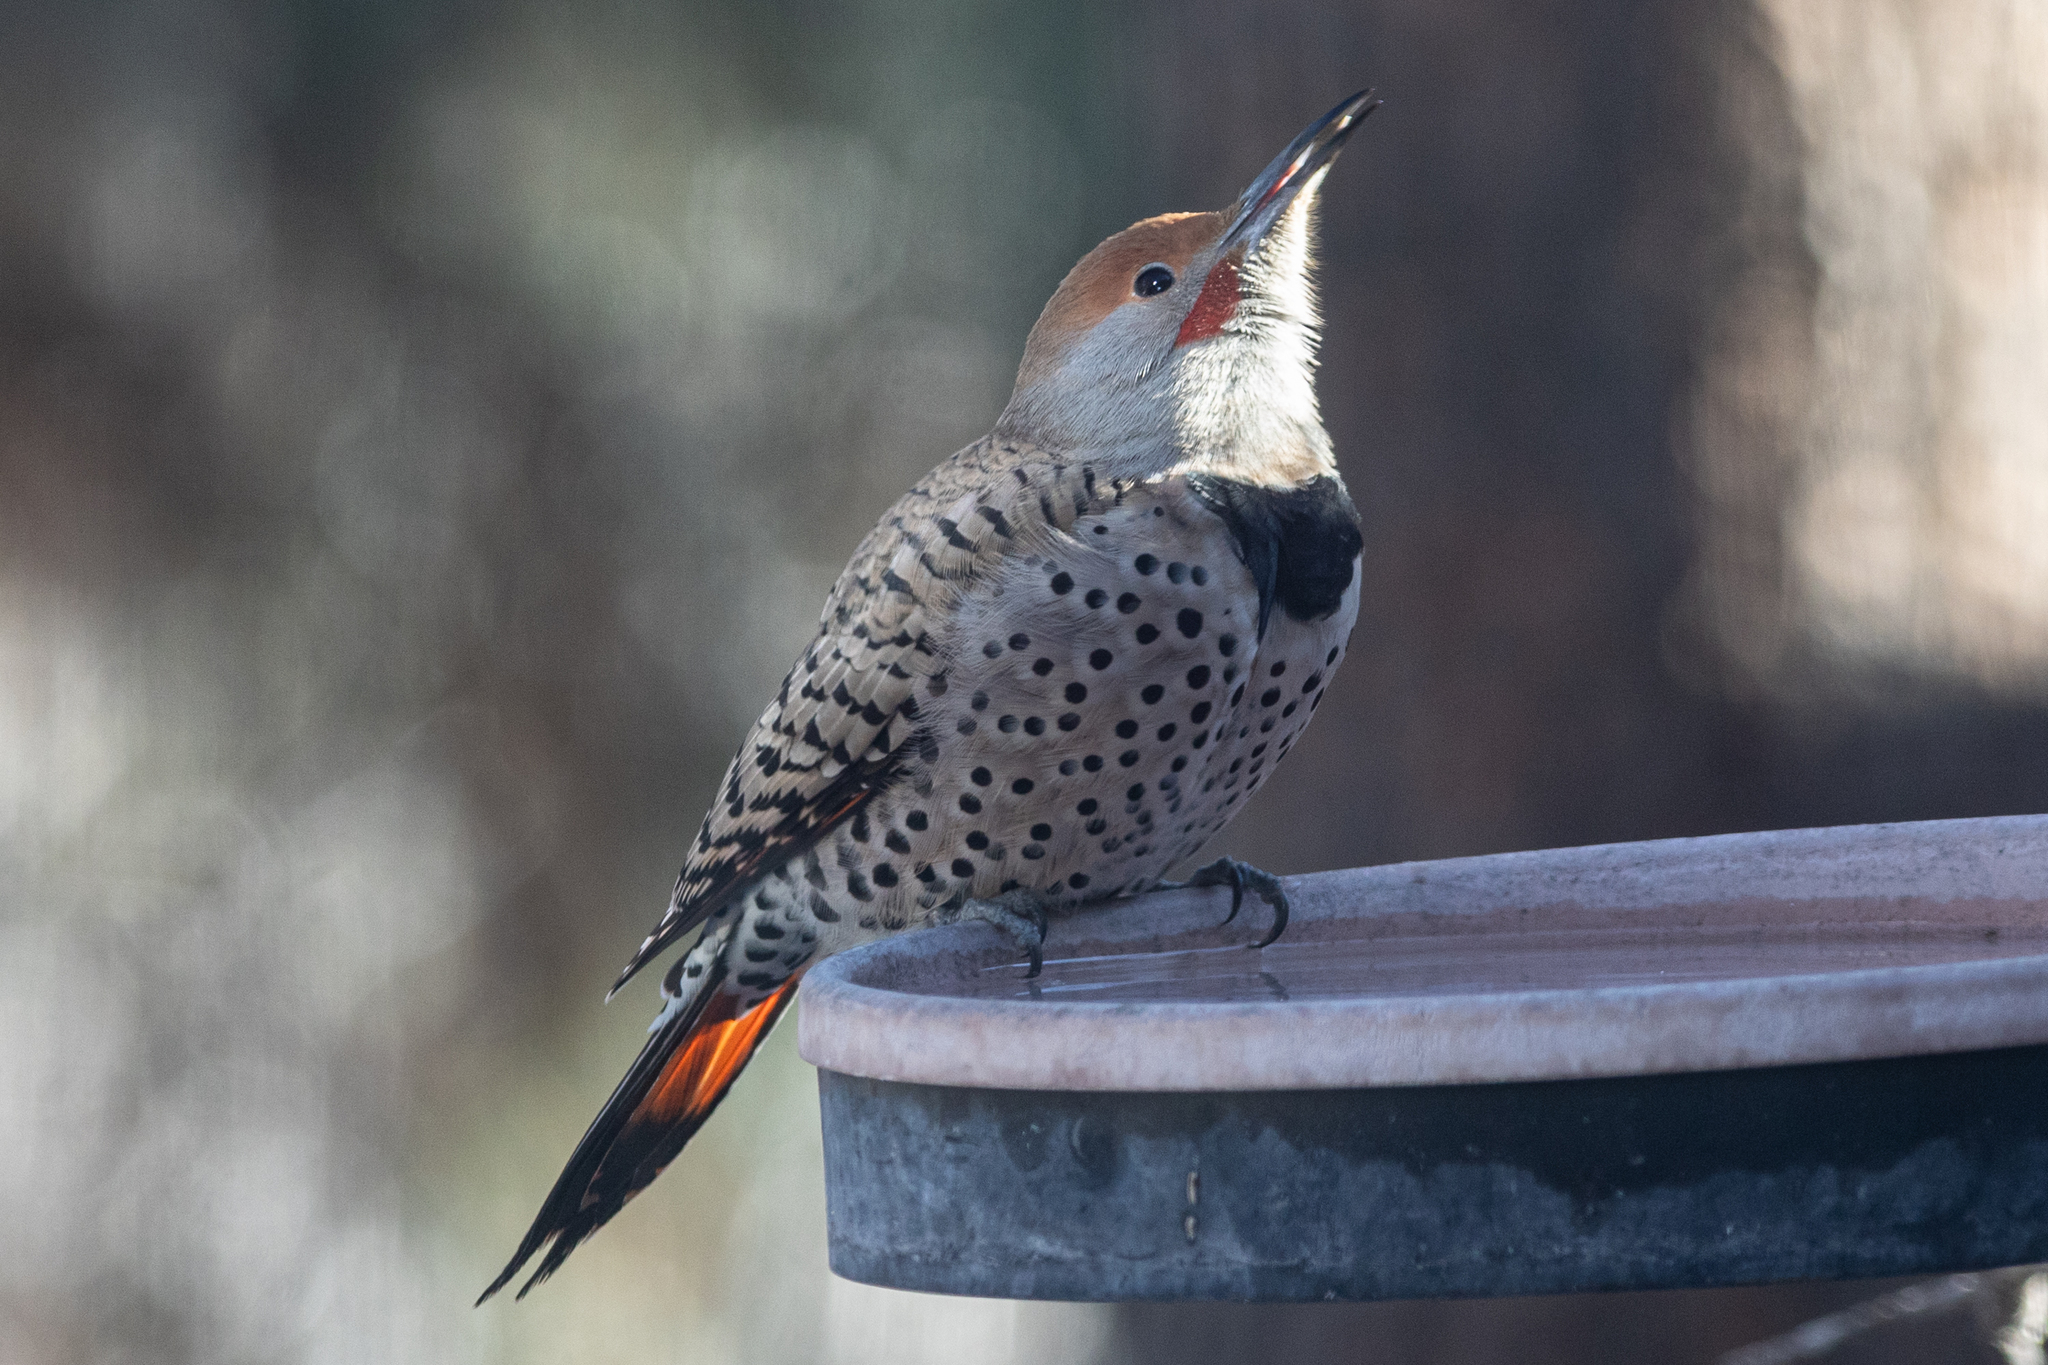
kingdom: Animalia
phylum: Chordata
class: Aves
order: Piciformes
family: Picidae
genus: Colaptes
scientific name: Colaptes auratus
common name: Northern flicker
